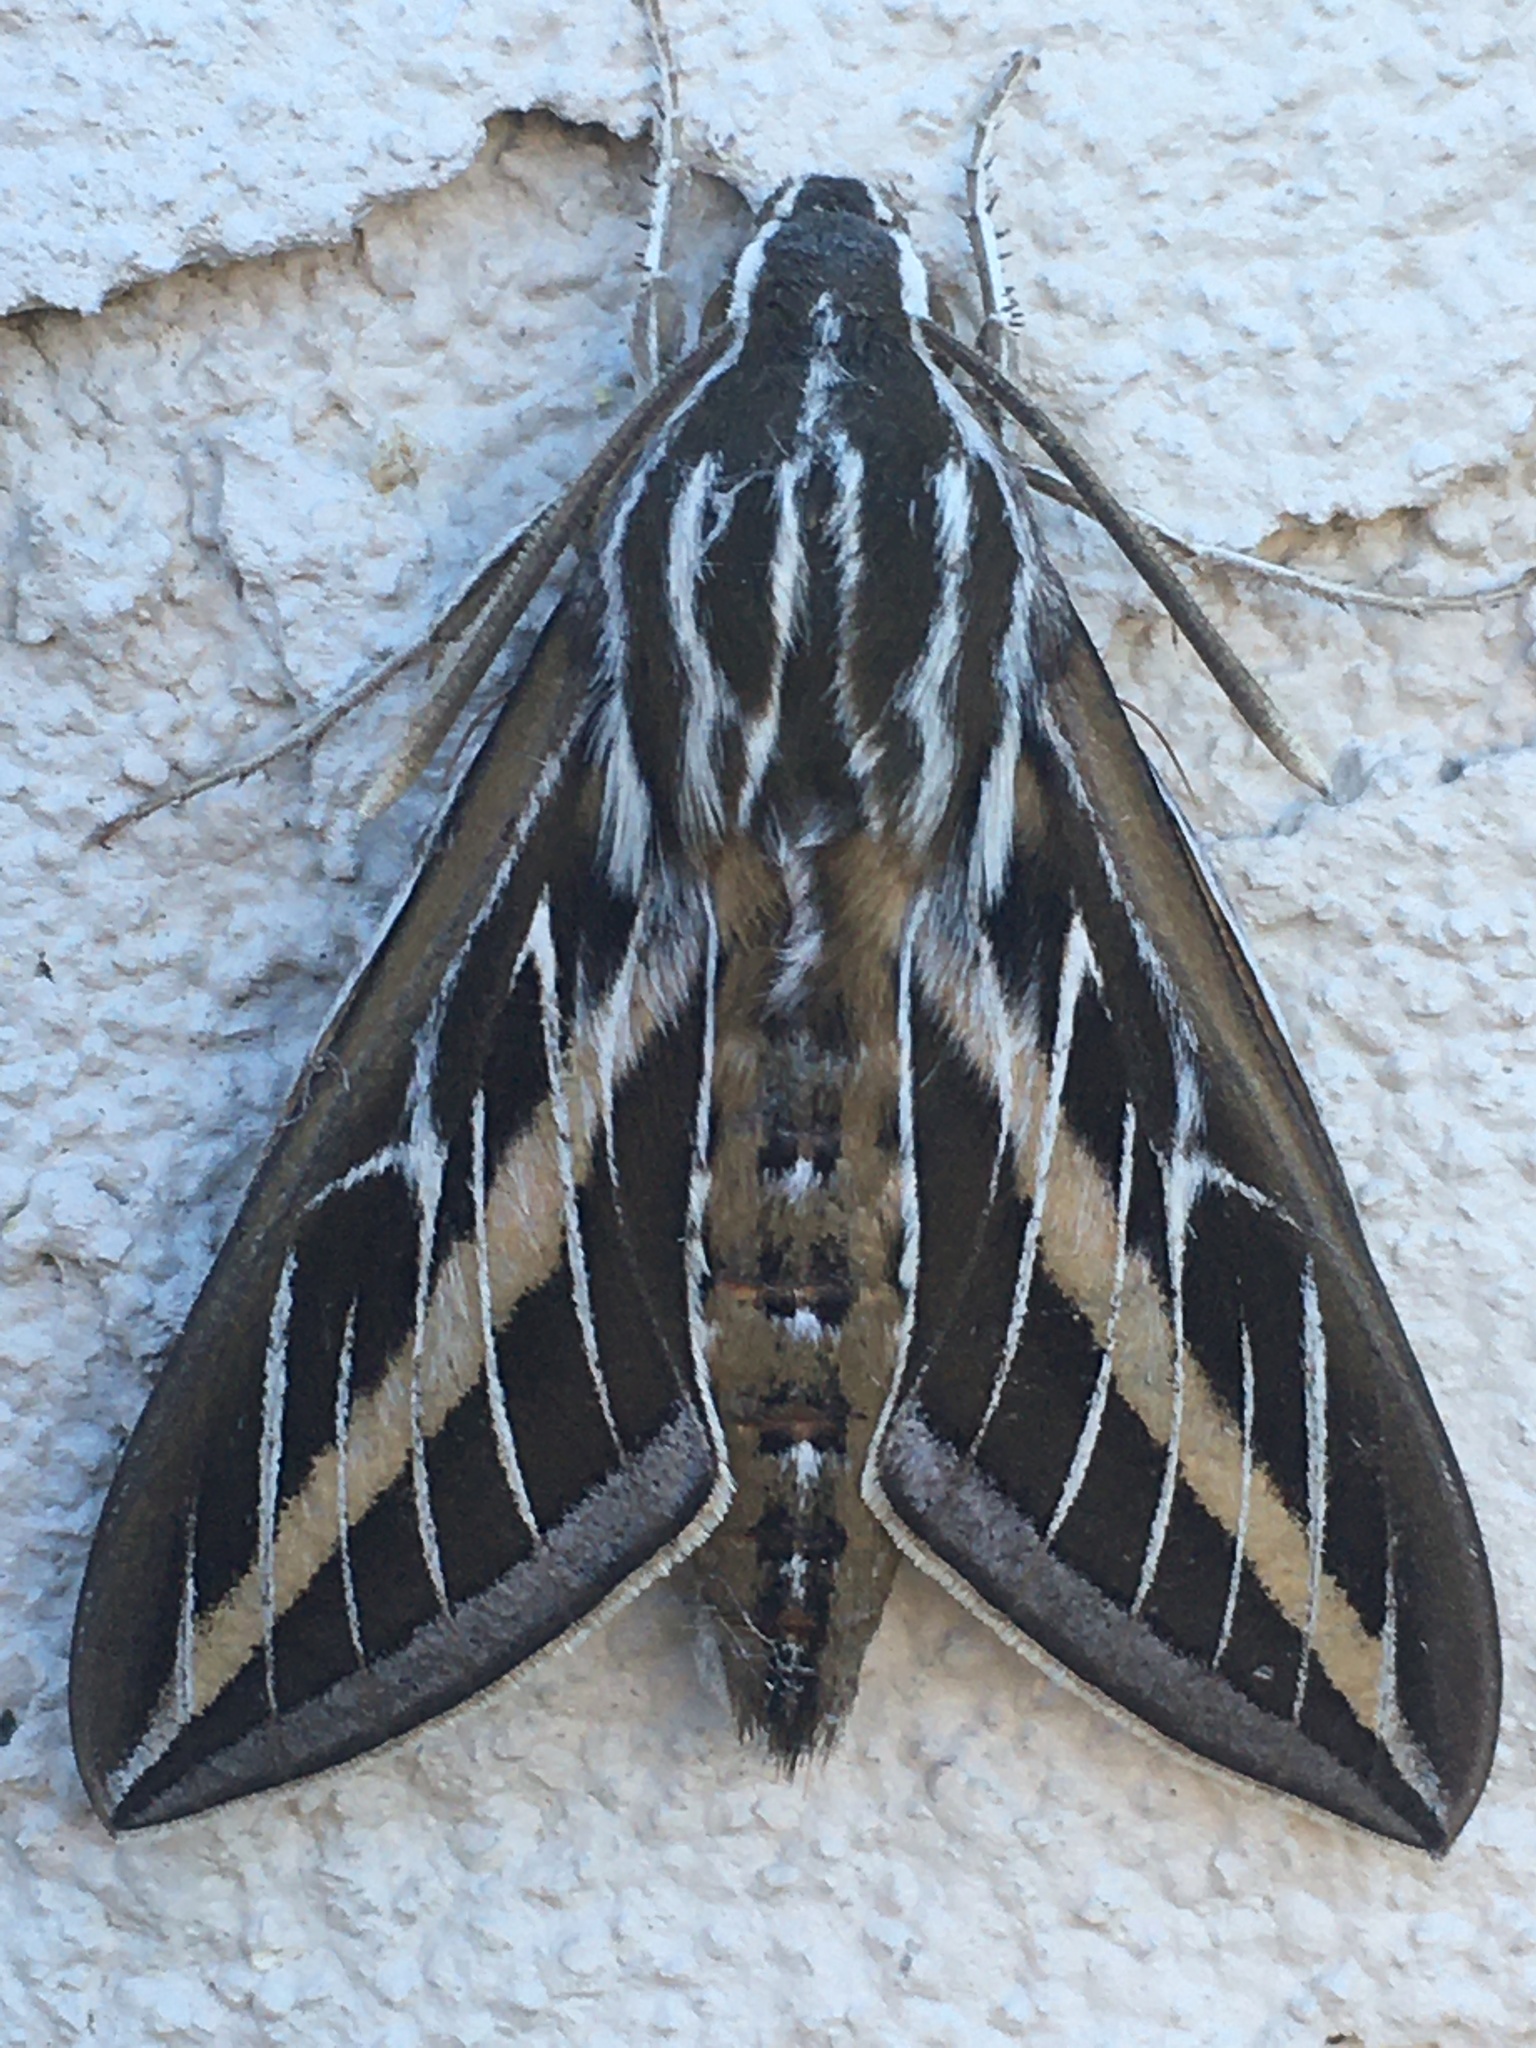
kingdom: Animalia
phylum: Arthropoda
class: Insecta
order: Lepidoptera
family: Sphingidae
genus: Hyles
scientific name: Hyles lineata
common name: White-lined sphinx
